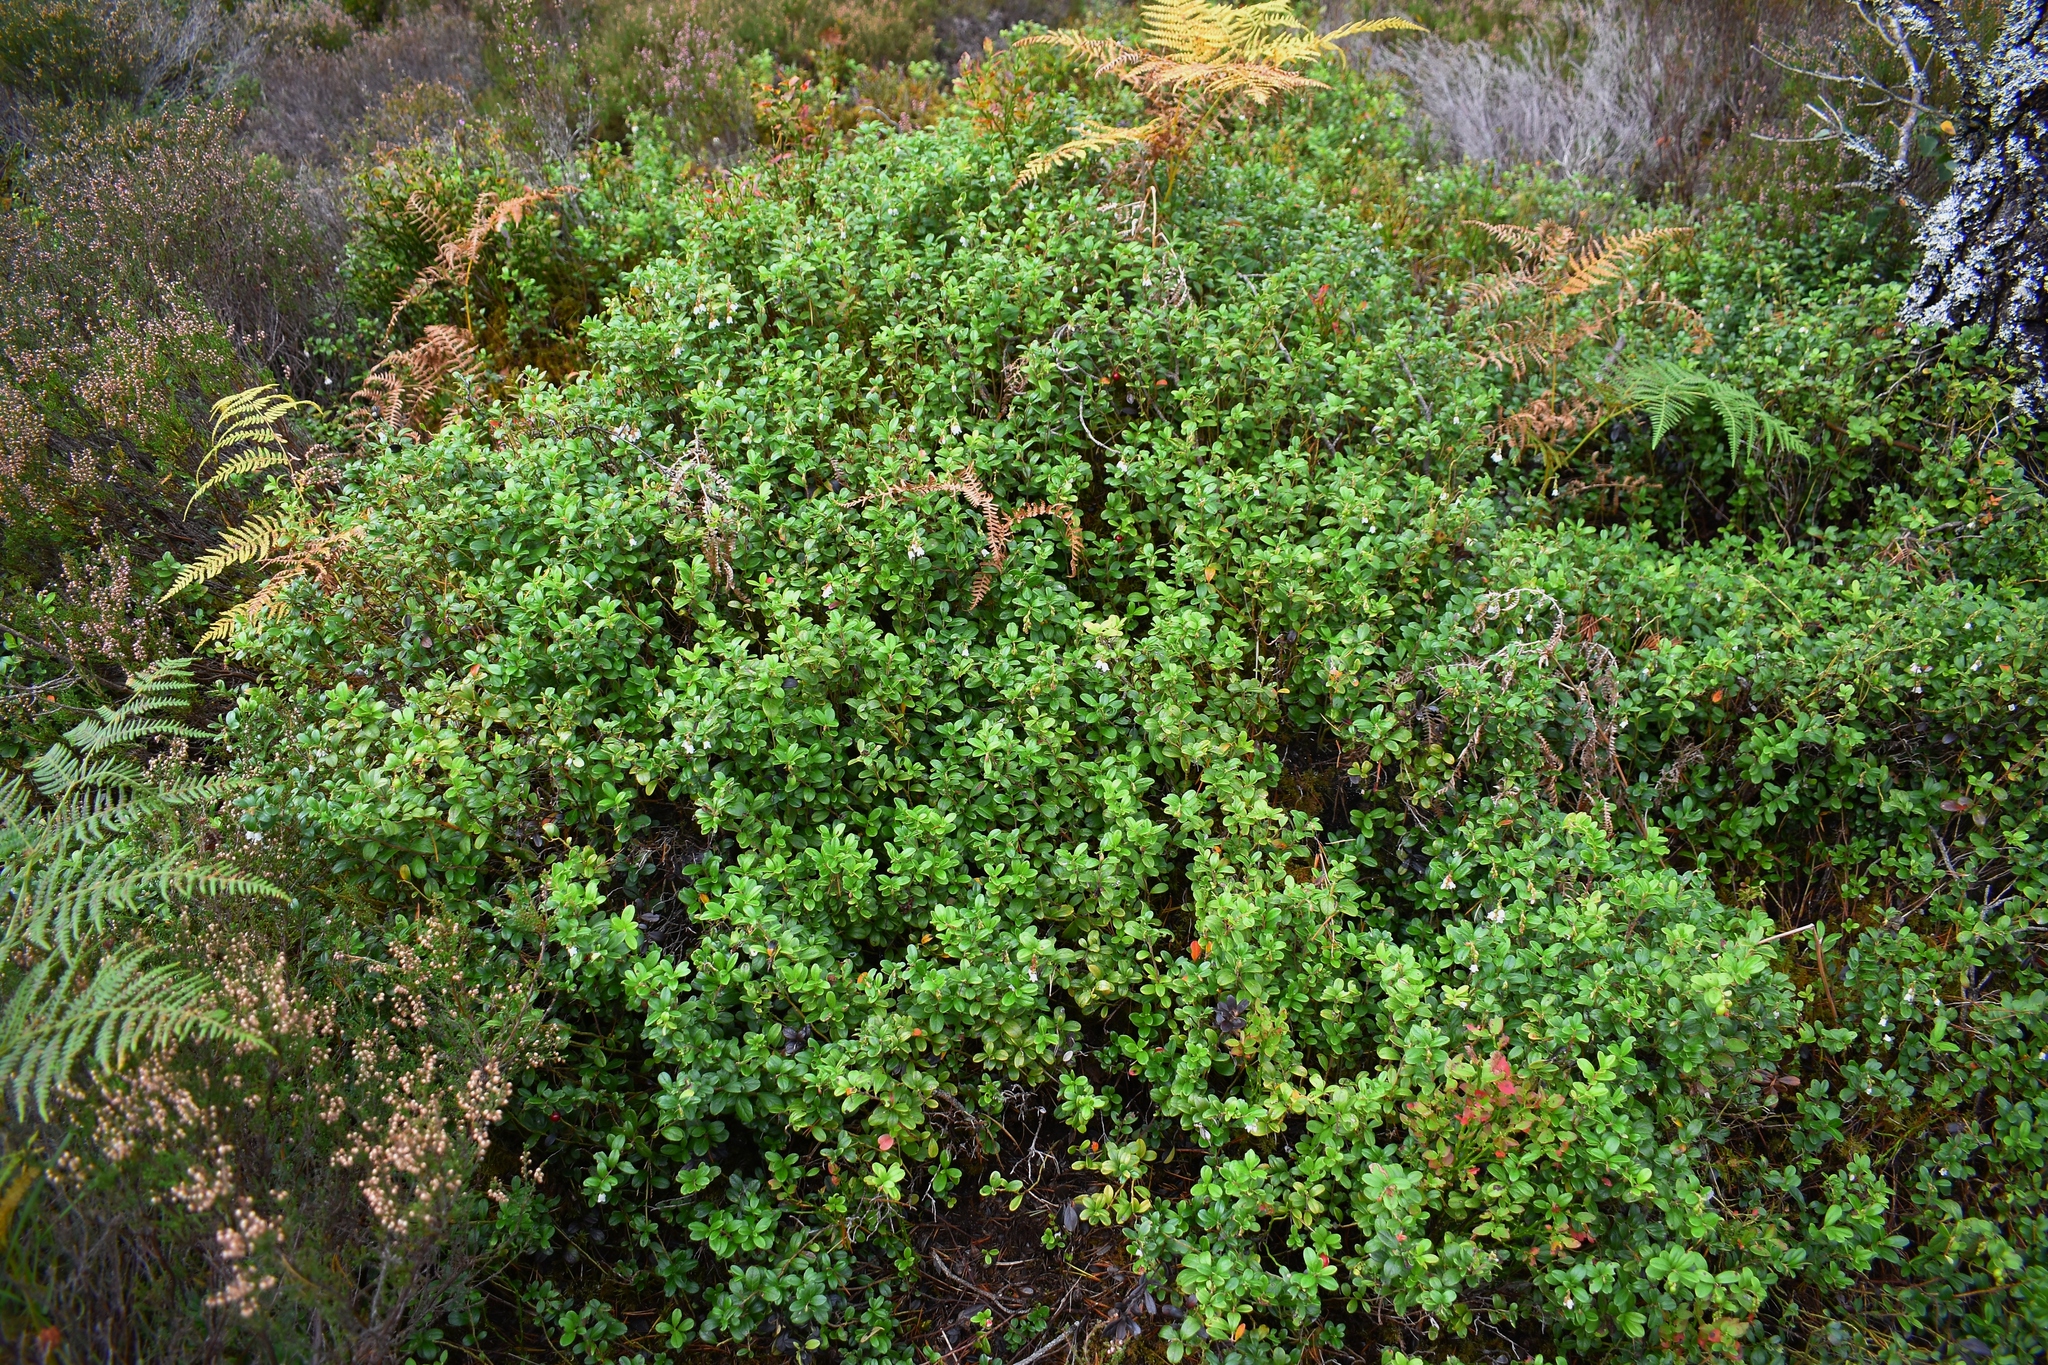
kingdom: Plantae
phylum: Tracheophyta
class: Magnoliopsida
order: Ericales
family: Ericaceae
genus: Vaccinium
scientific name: Vaccinium vitis-idaea
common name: Cowberry
